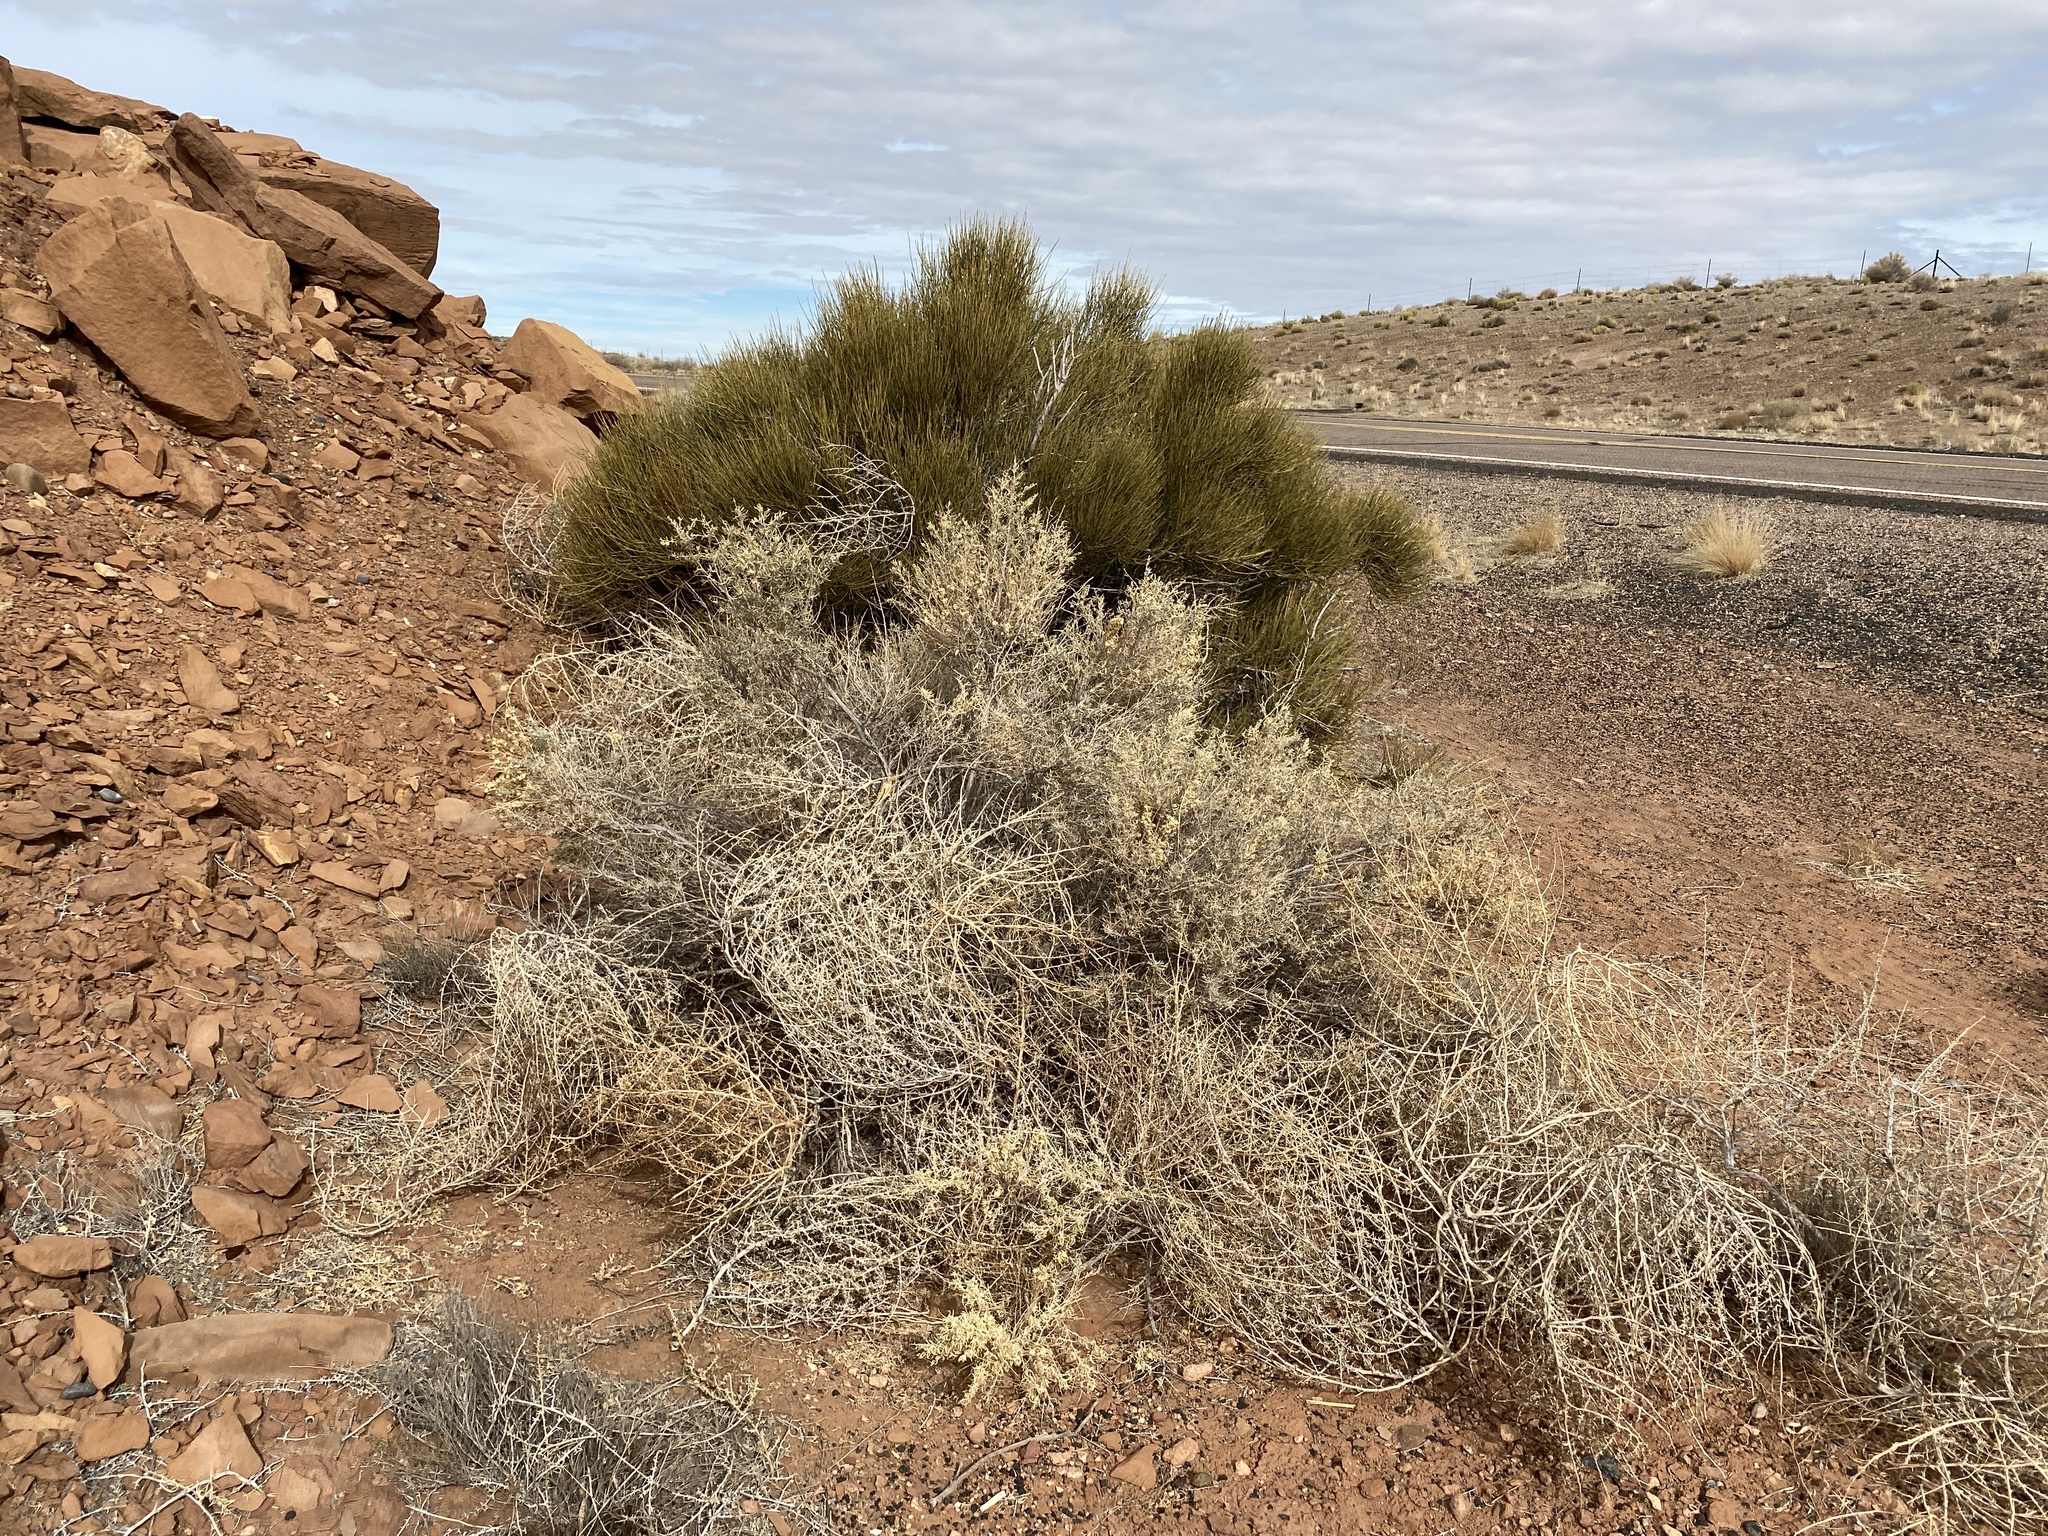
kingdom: Plantae
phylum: Tracheophyta
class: Magnoliopsida
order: Caryophyllales
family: Amaranthaceae
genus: Atriplex
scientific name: Atriplex canescens
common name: Four-wing saltbush
